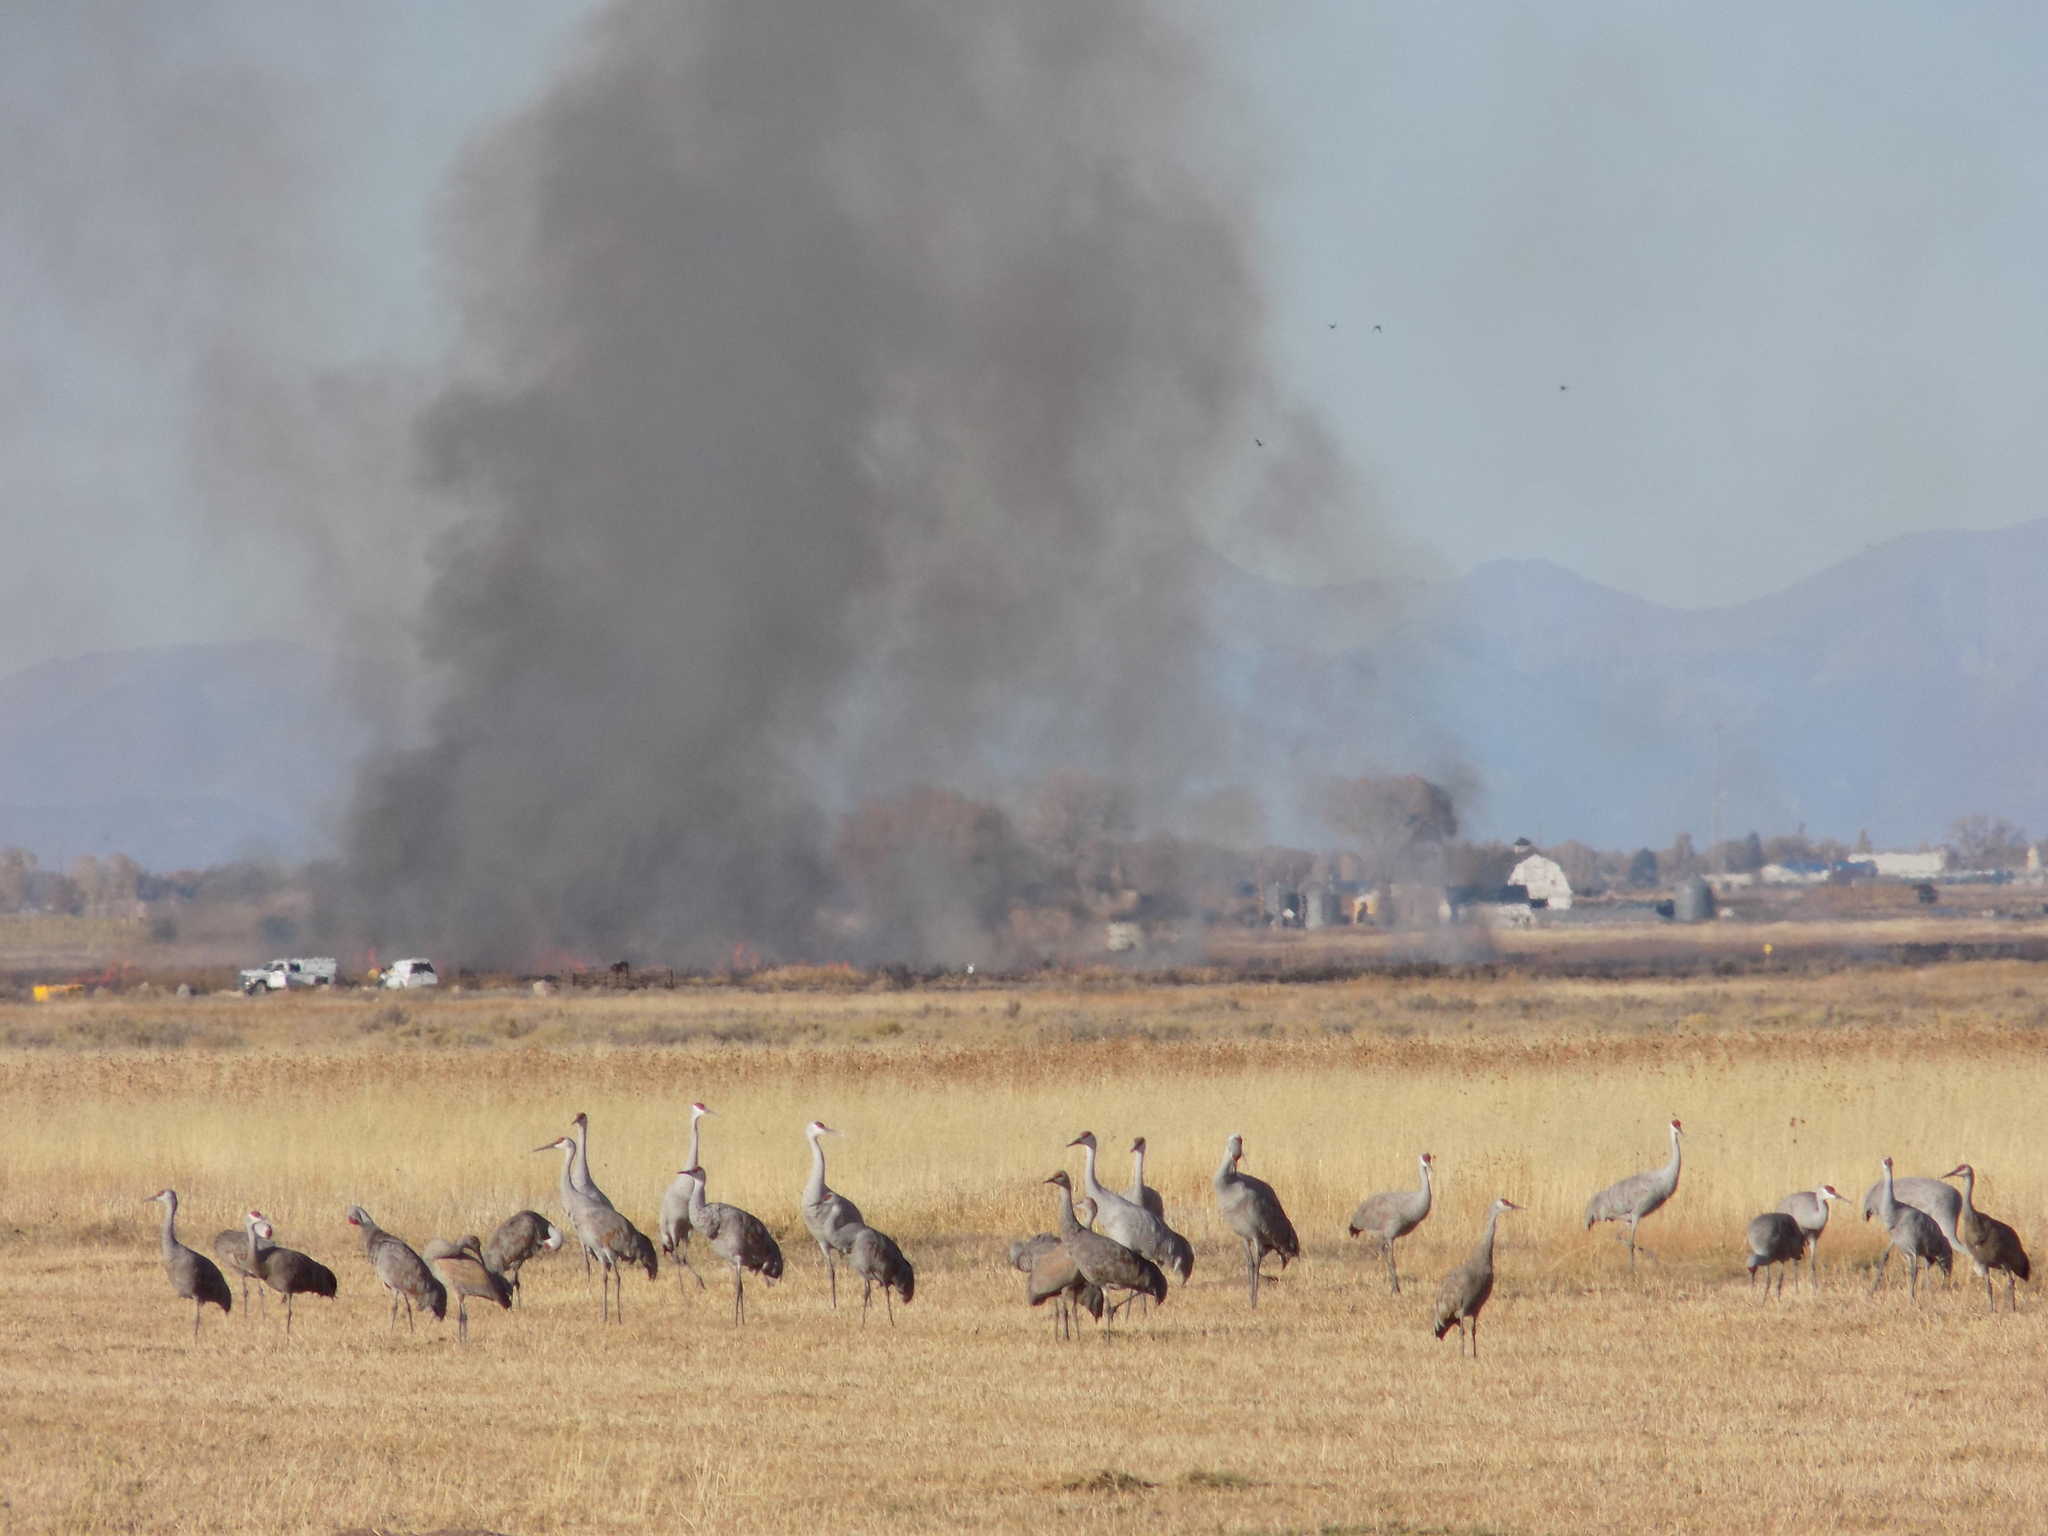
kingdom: Animalia
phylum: Chordata
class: Aves
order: Gruiformes
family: Gruidae
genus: Grus
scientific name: Grus canadensis
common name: Sandhill crane
